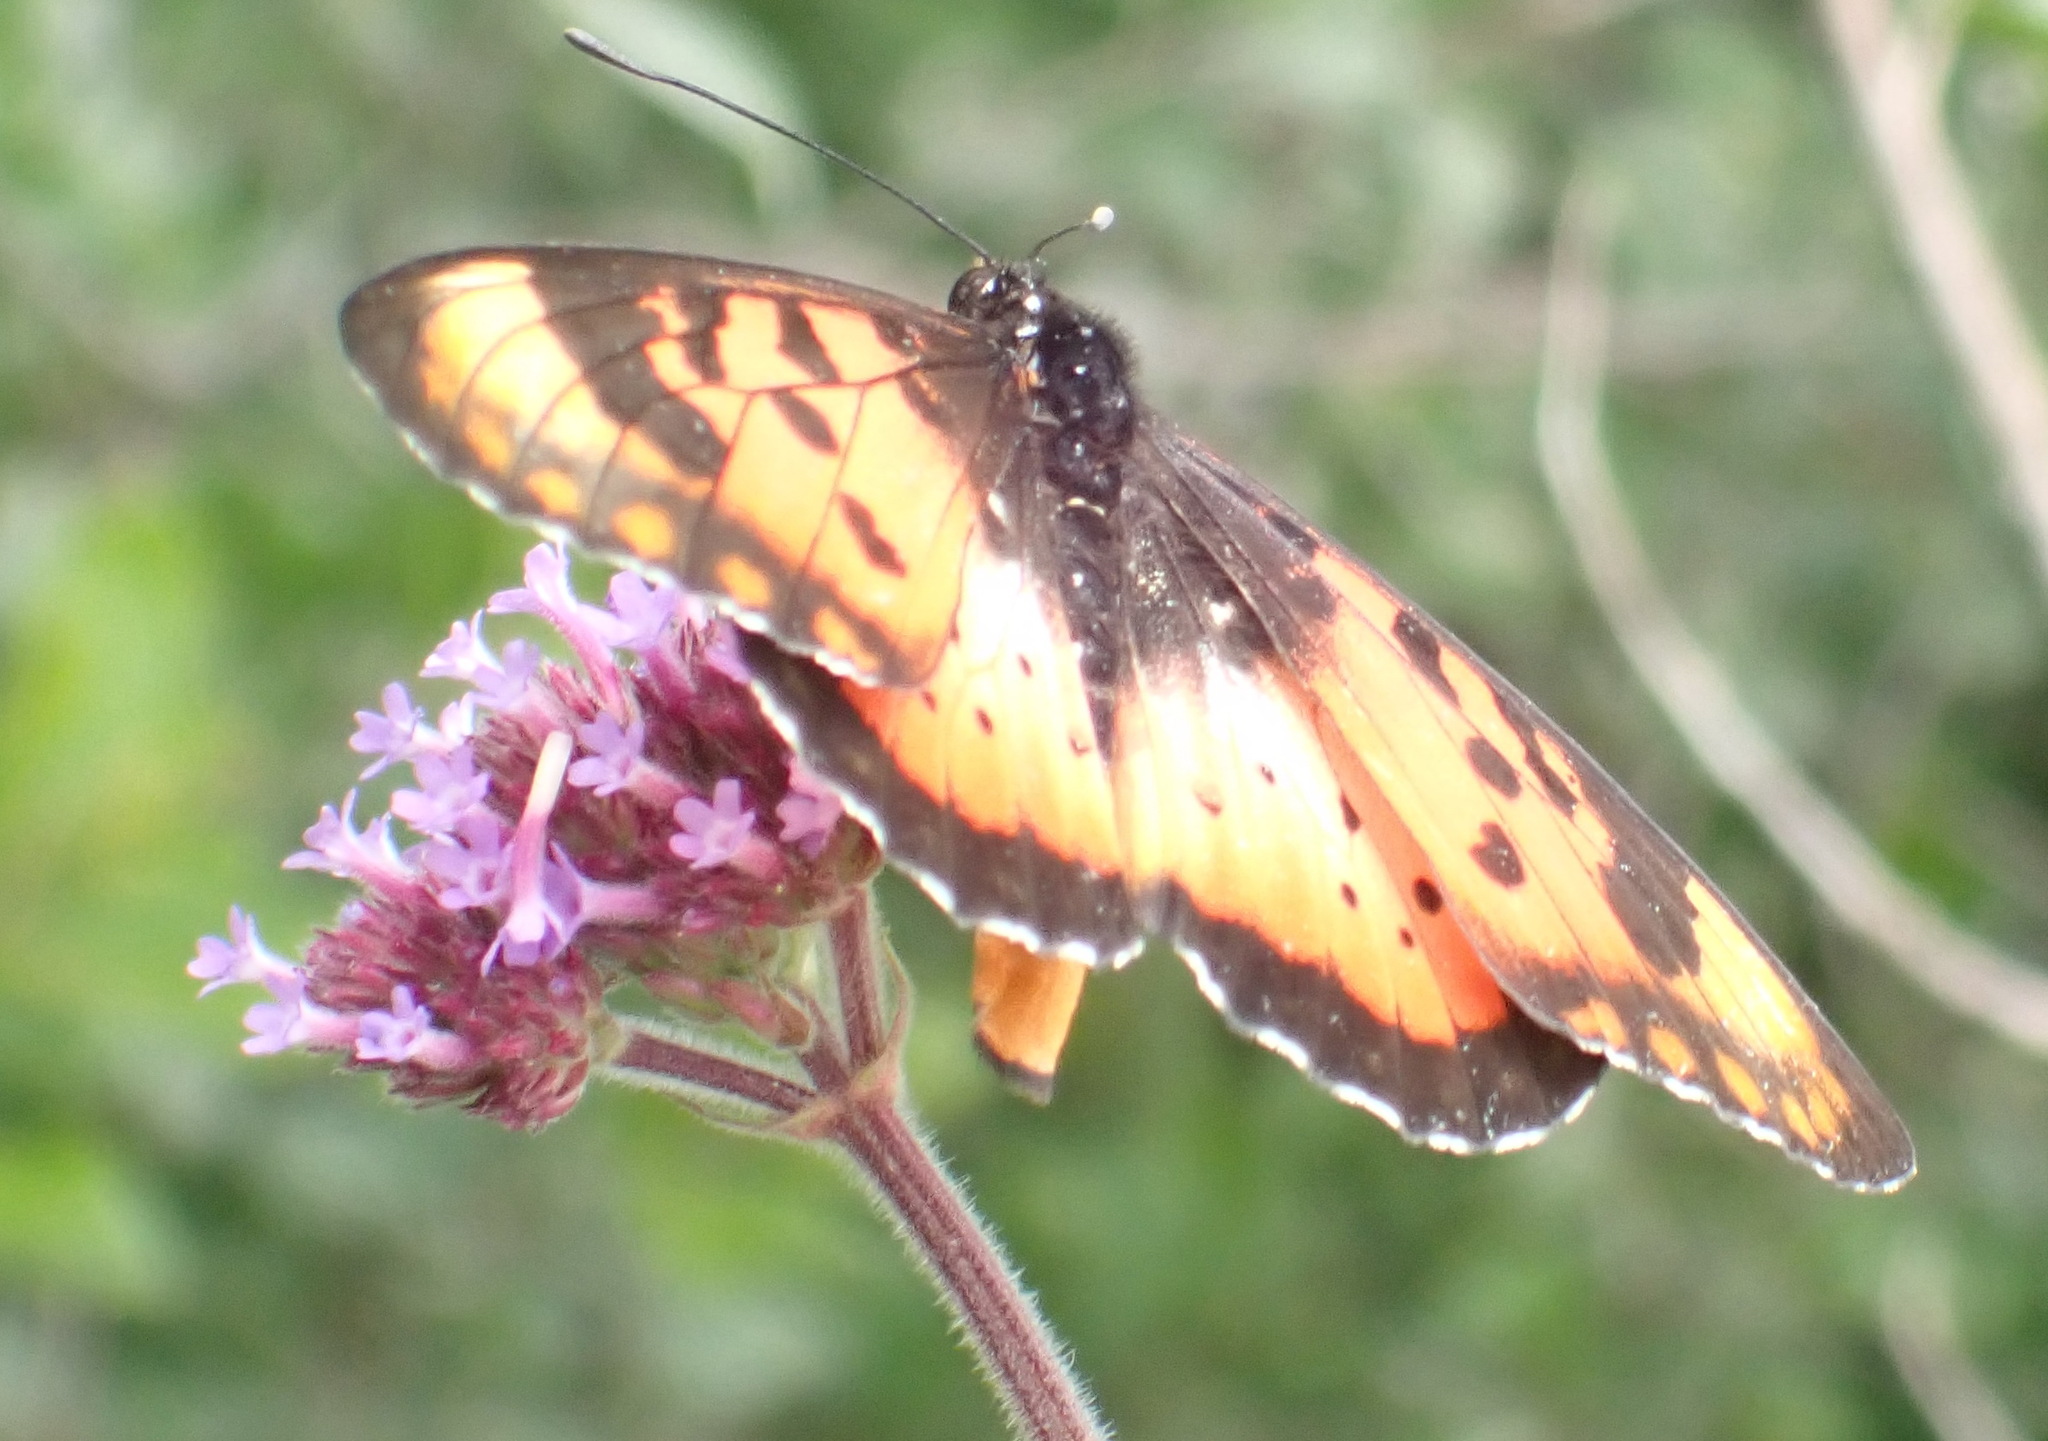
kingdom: Animalia
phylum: Arthropoda
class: Insecta
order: Lepidoptera
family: Nymphalidae
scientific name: Nymphalidae
